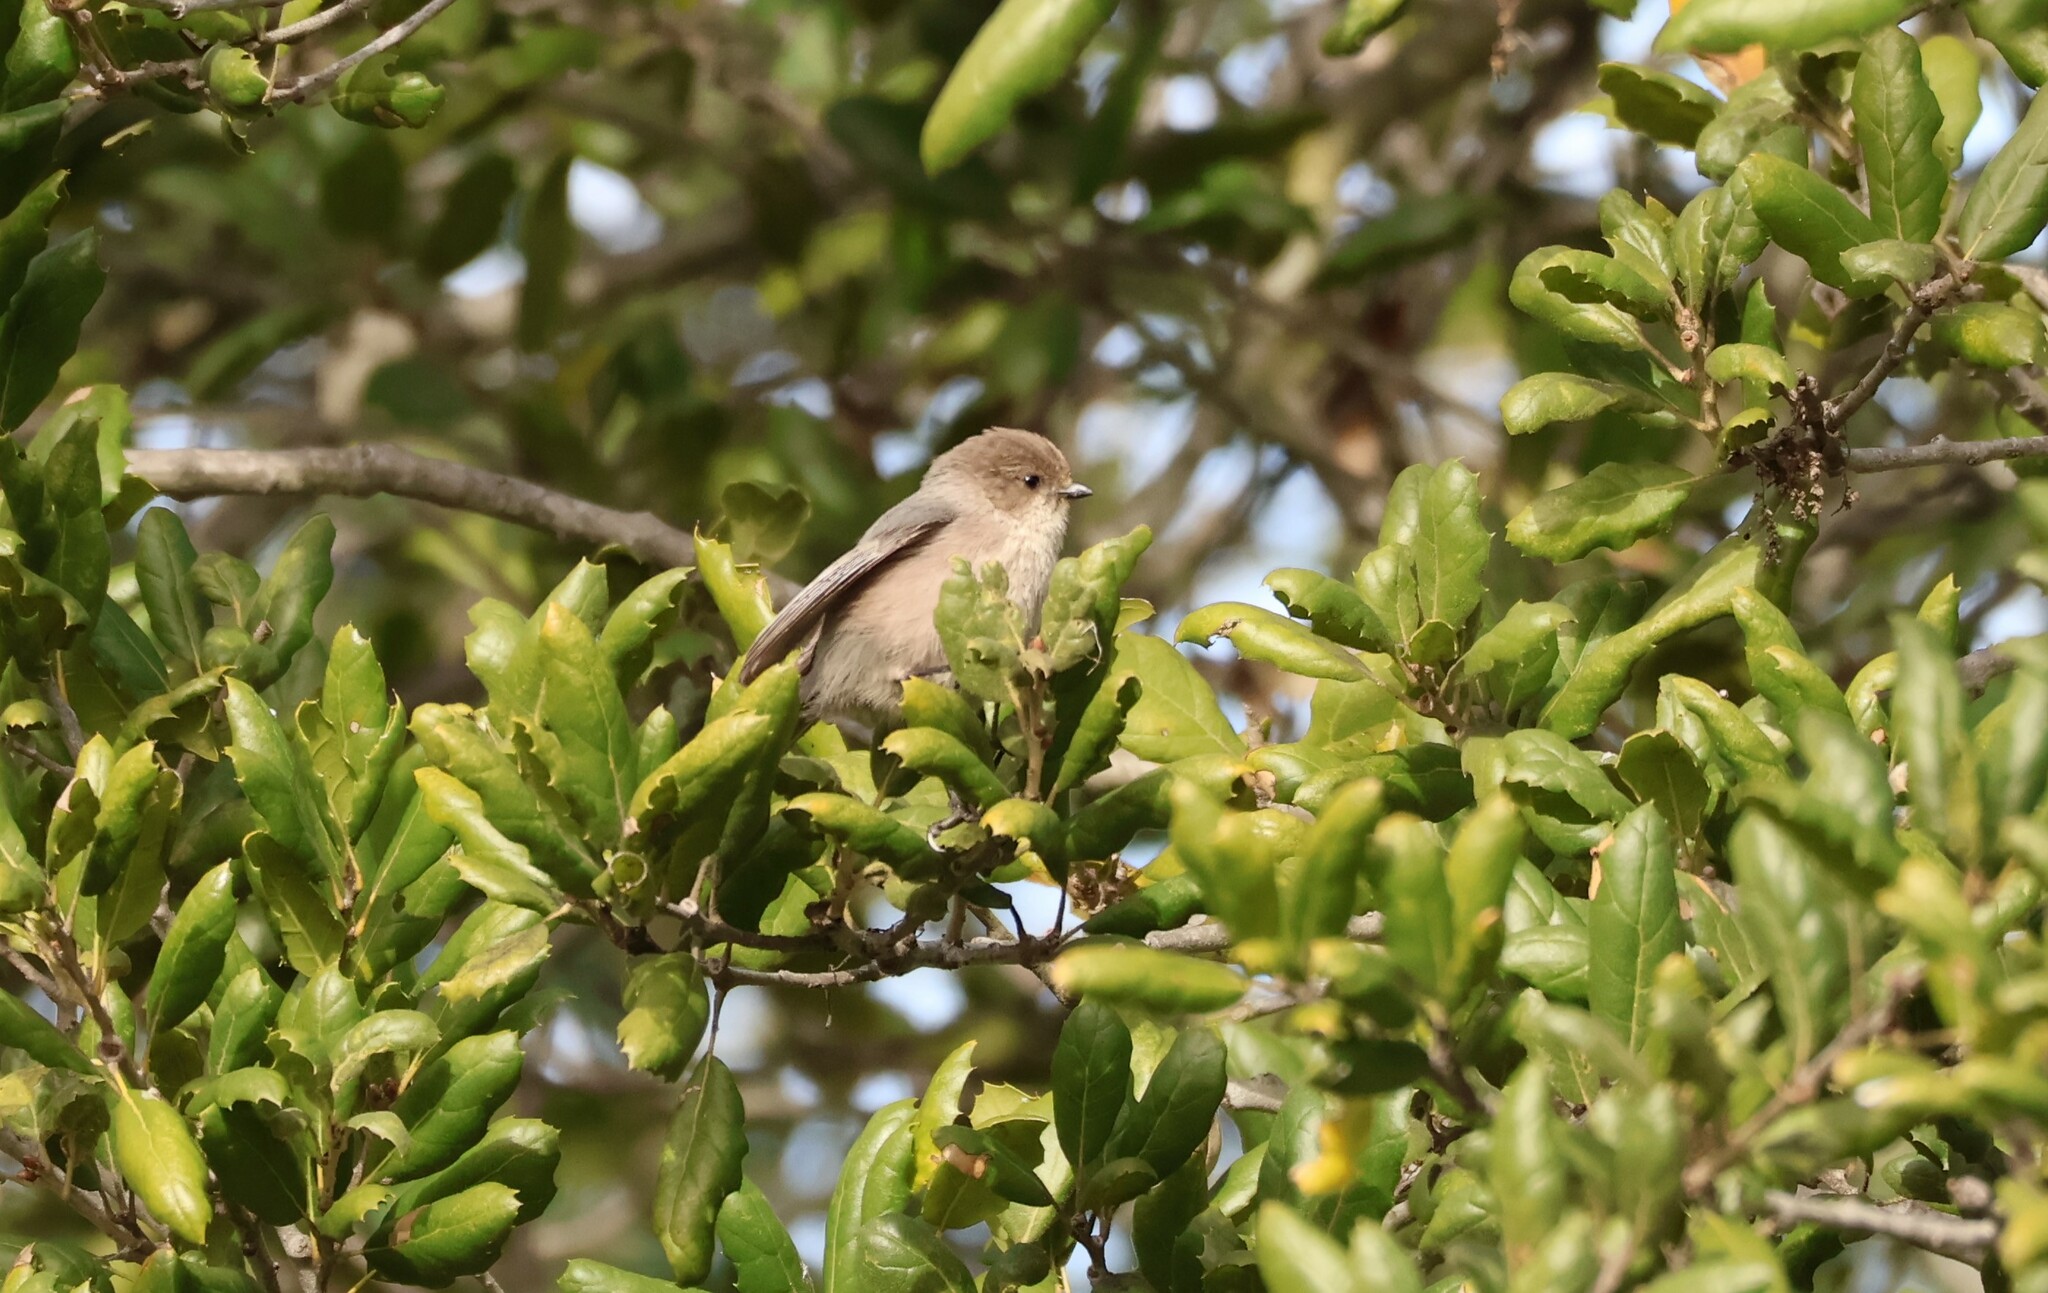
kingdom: Animalia
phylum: Chordata
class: Aves
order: Passeriformes
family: Aegithalidae
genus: Psaltriparus
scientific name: Psaltriparus minimus
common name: American bushtit
